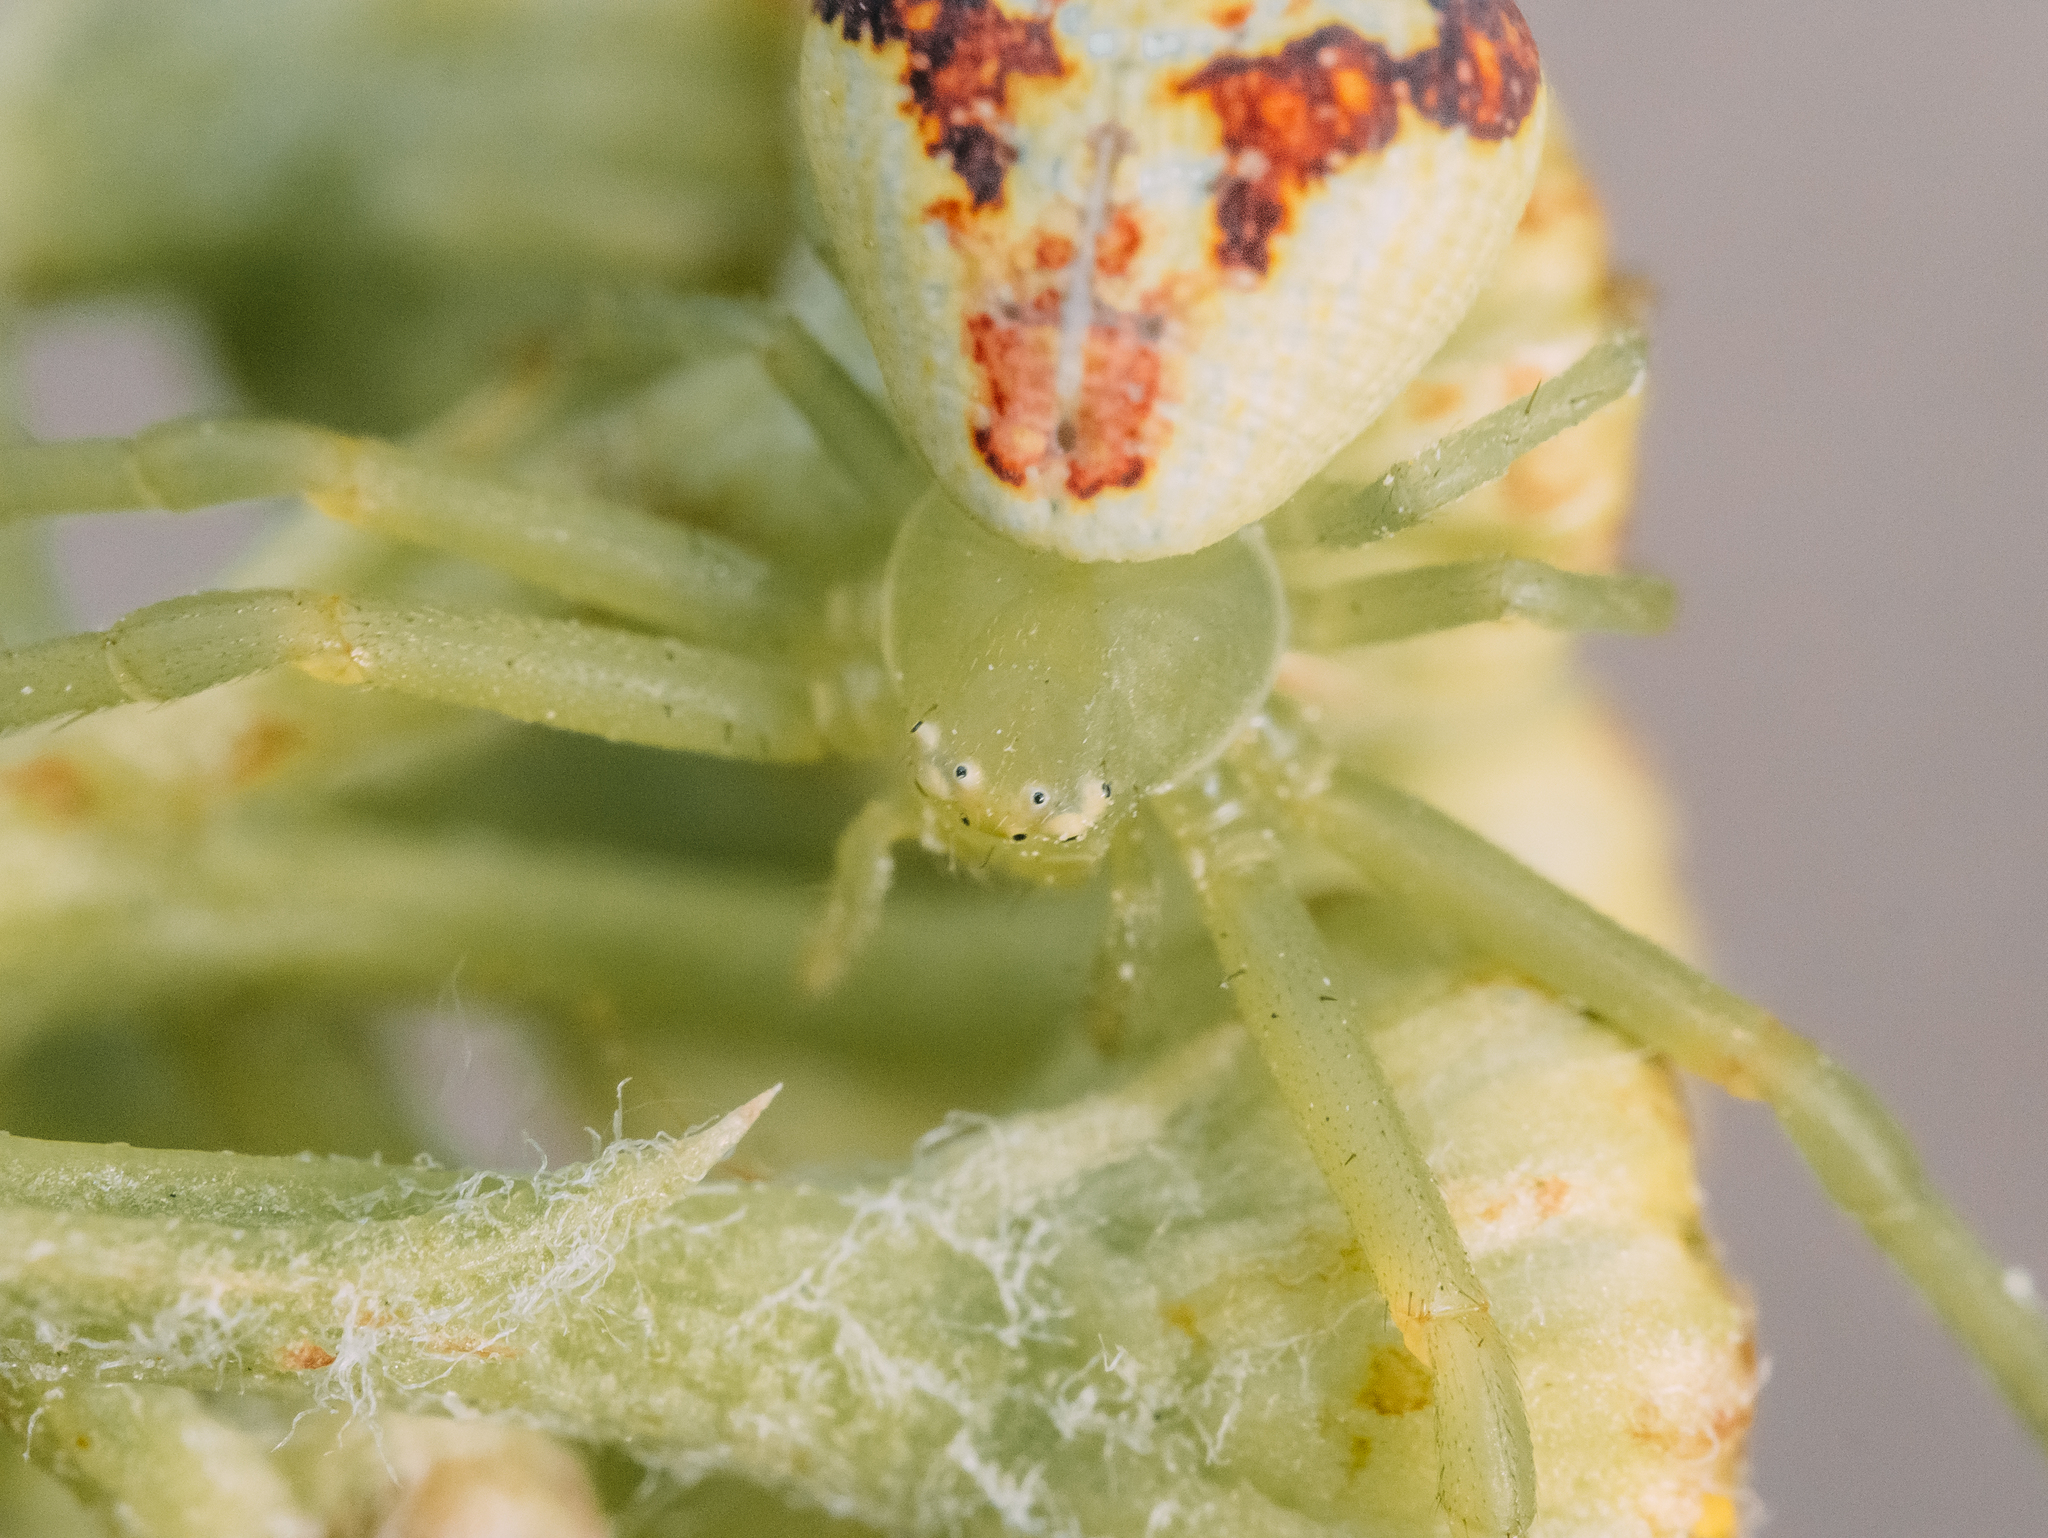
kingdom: Animalia
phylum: Arthropoda
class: Arachnida
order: Araneae
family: Thomisidae
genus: Ebrechtella
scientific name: Ebrechtella tricuspidata
